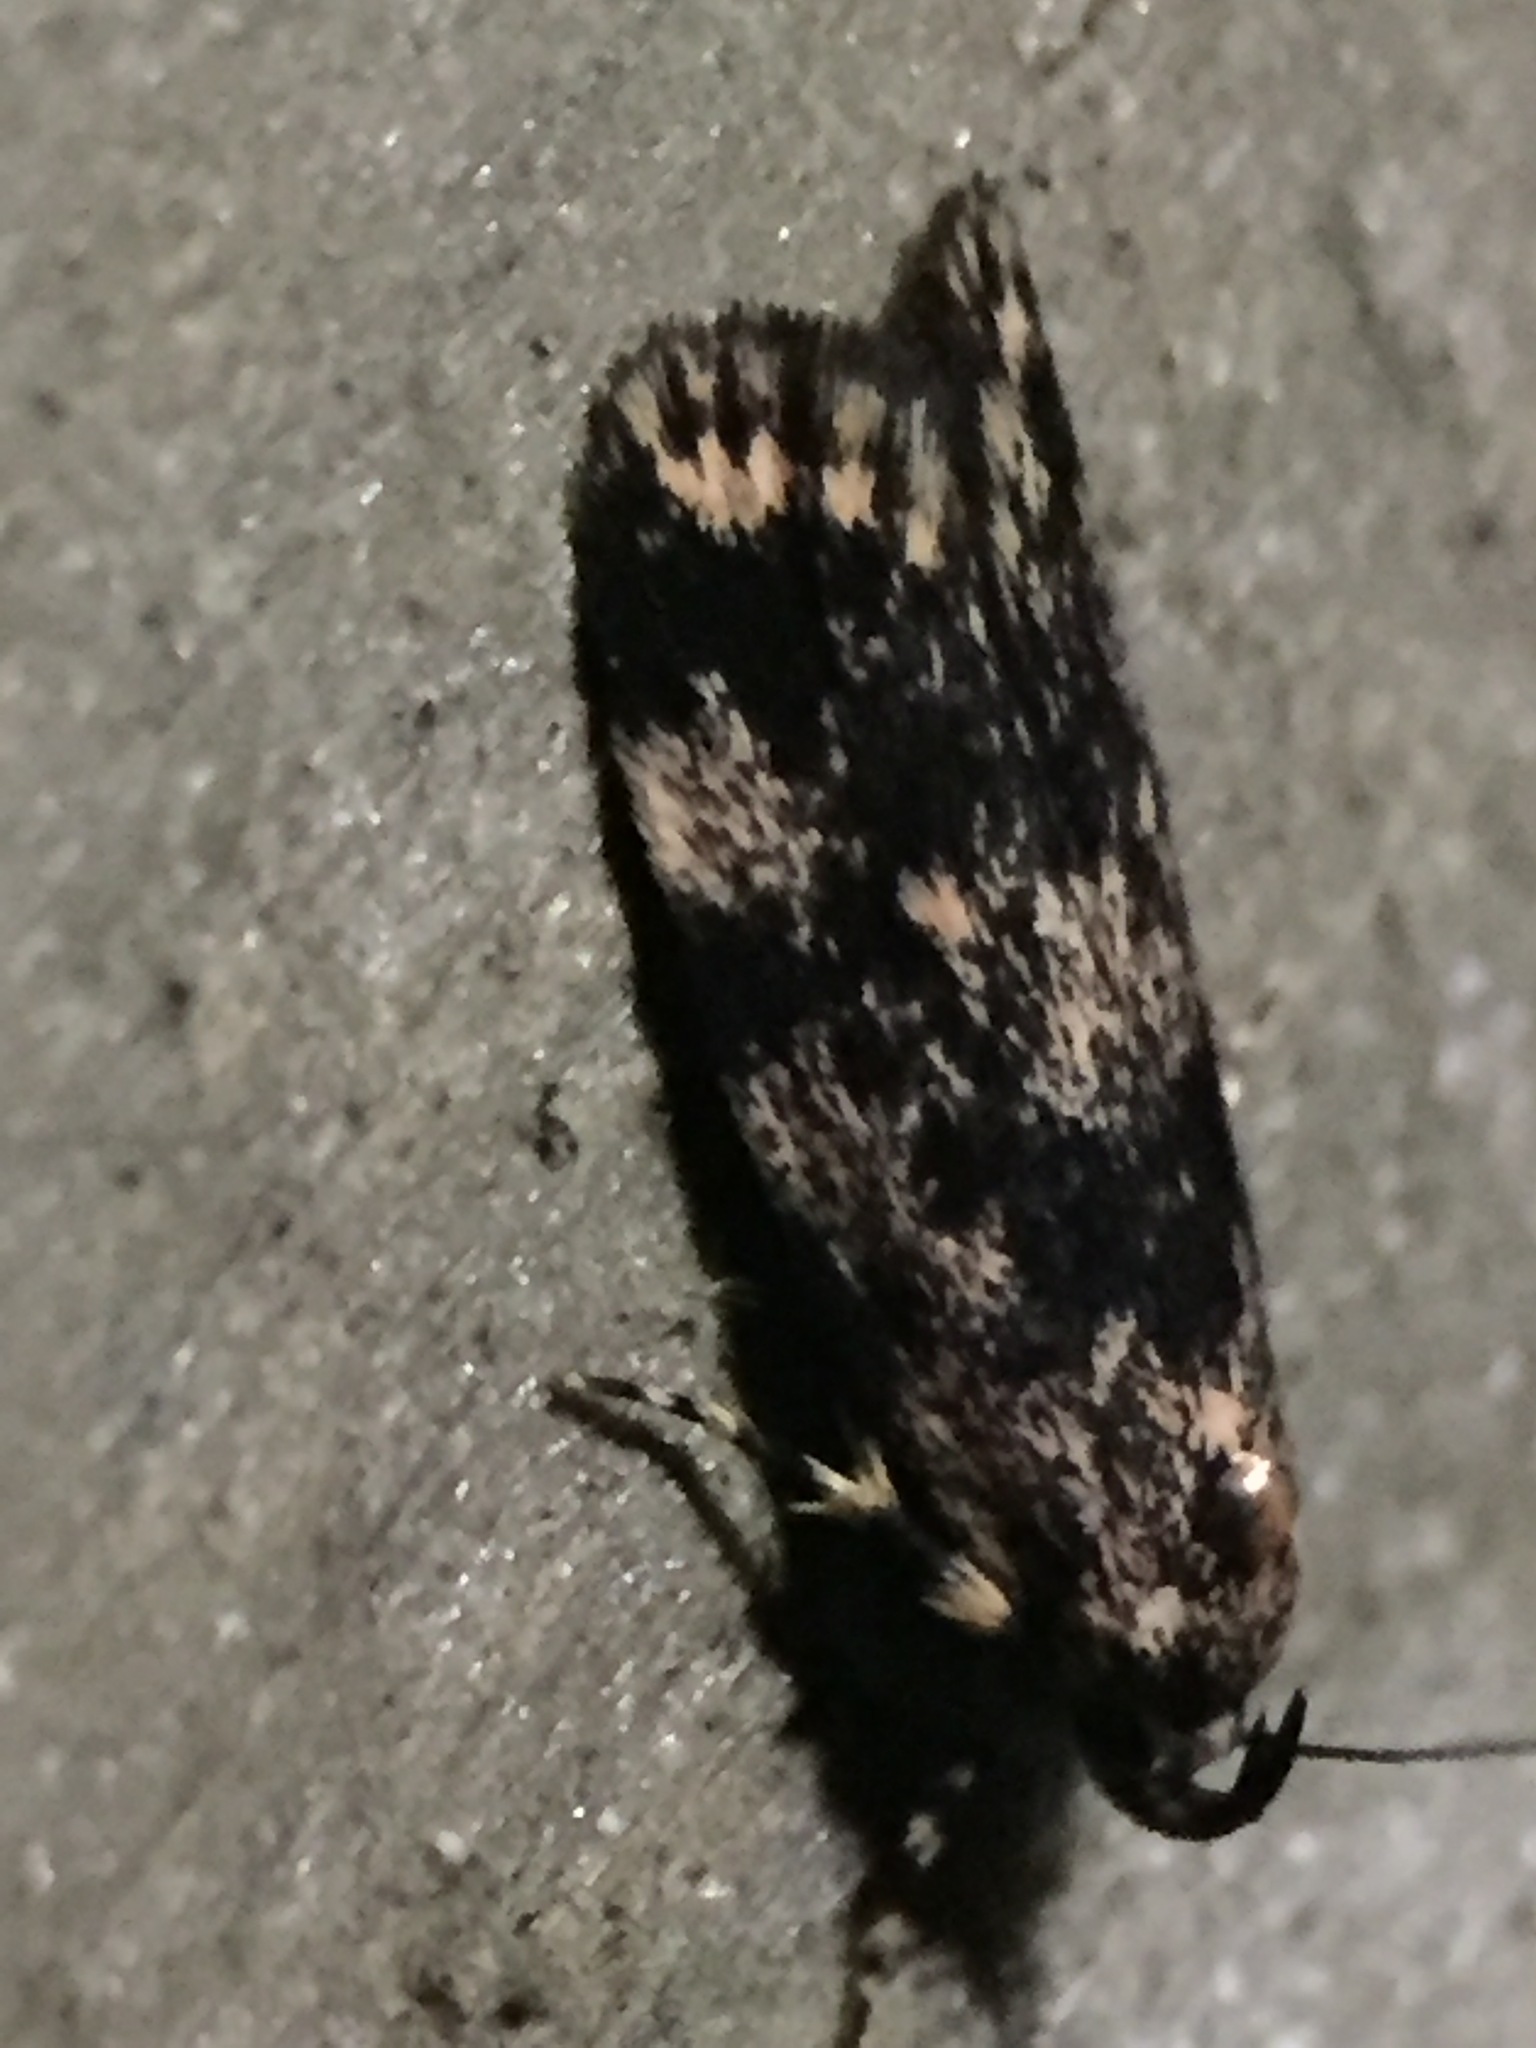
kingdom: Animalia
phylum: Arthropoda
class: Insecta
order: Lepidoptera
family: Oecophoridae
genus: Barea
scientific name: Barea codrella
